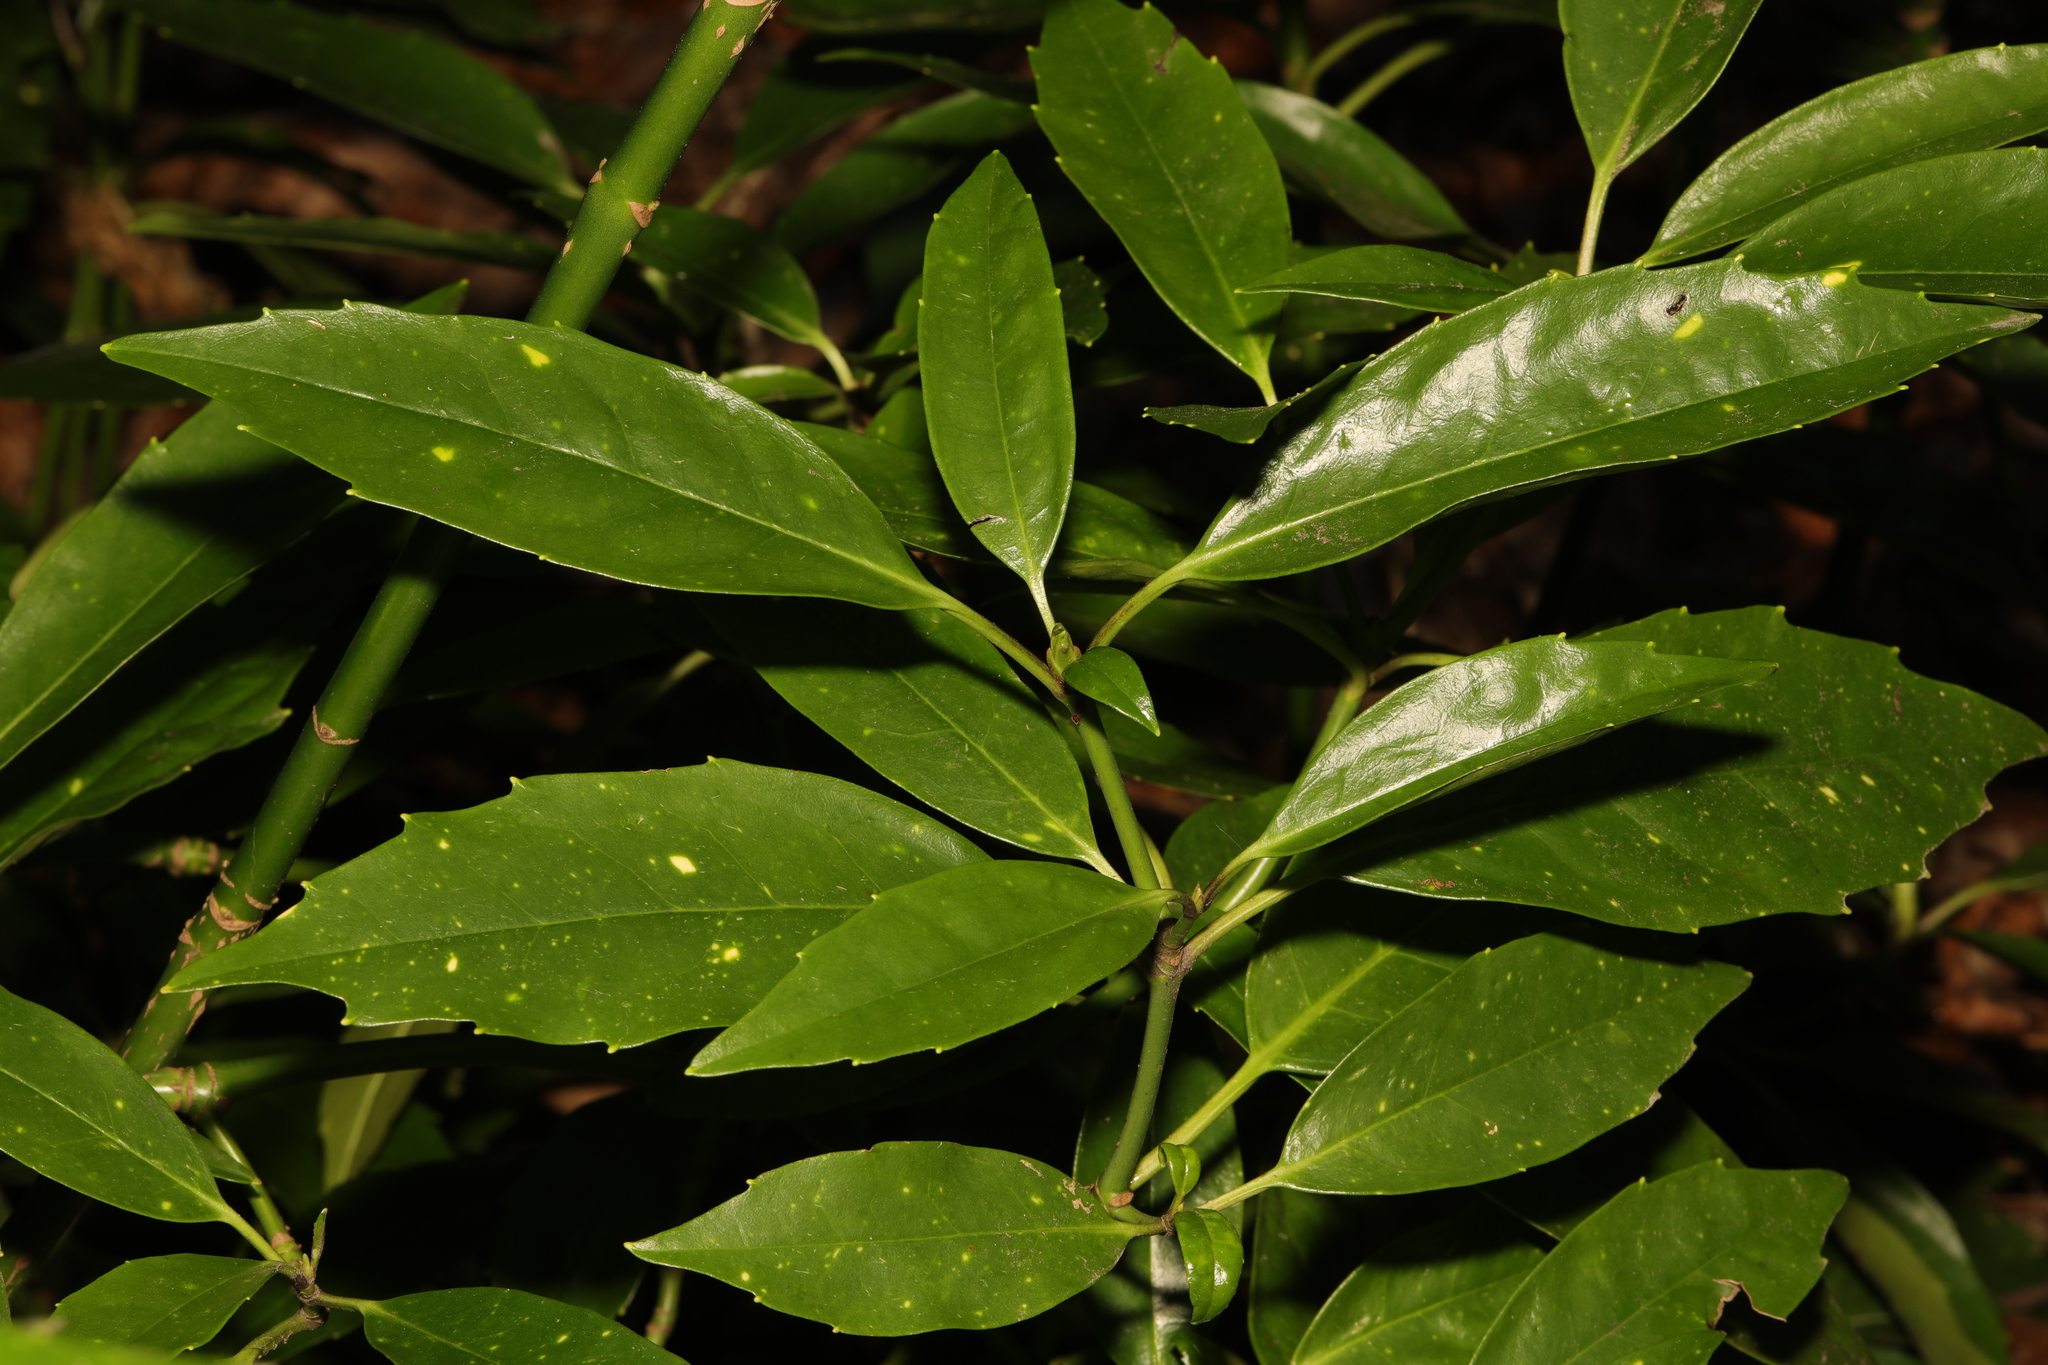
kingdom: Plantae
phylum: Tracheophyta
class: Magnoliopsida
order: Garryales
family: Garryaceae
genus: Aucuba
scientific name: Aucuba japonica
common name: Spotted-laurel
